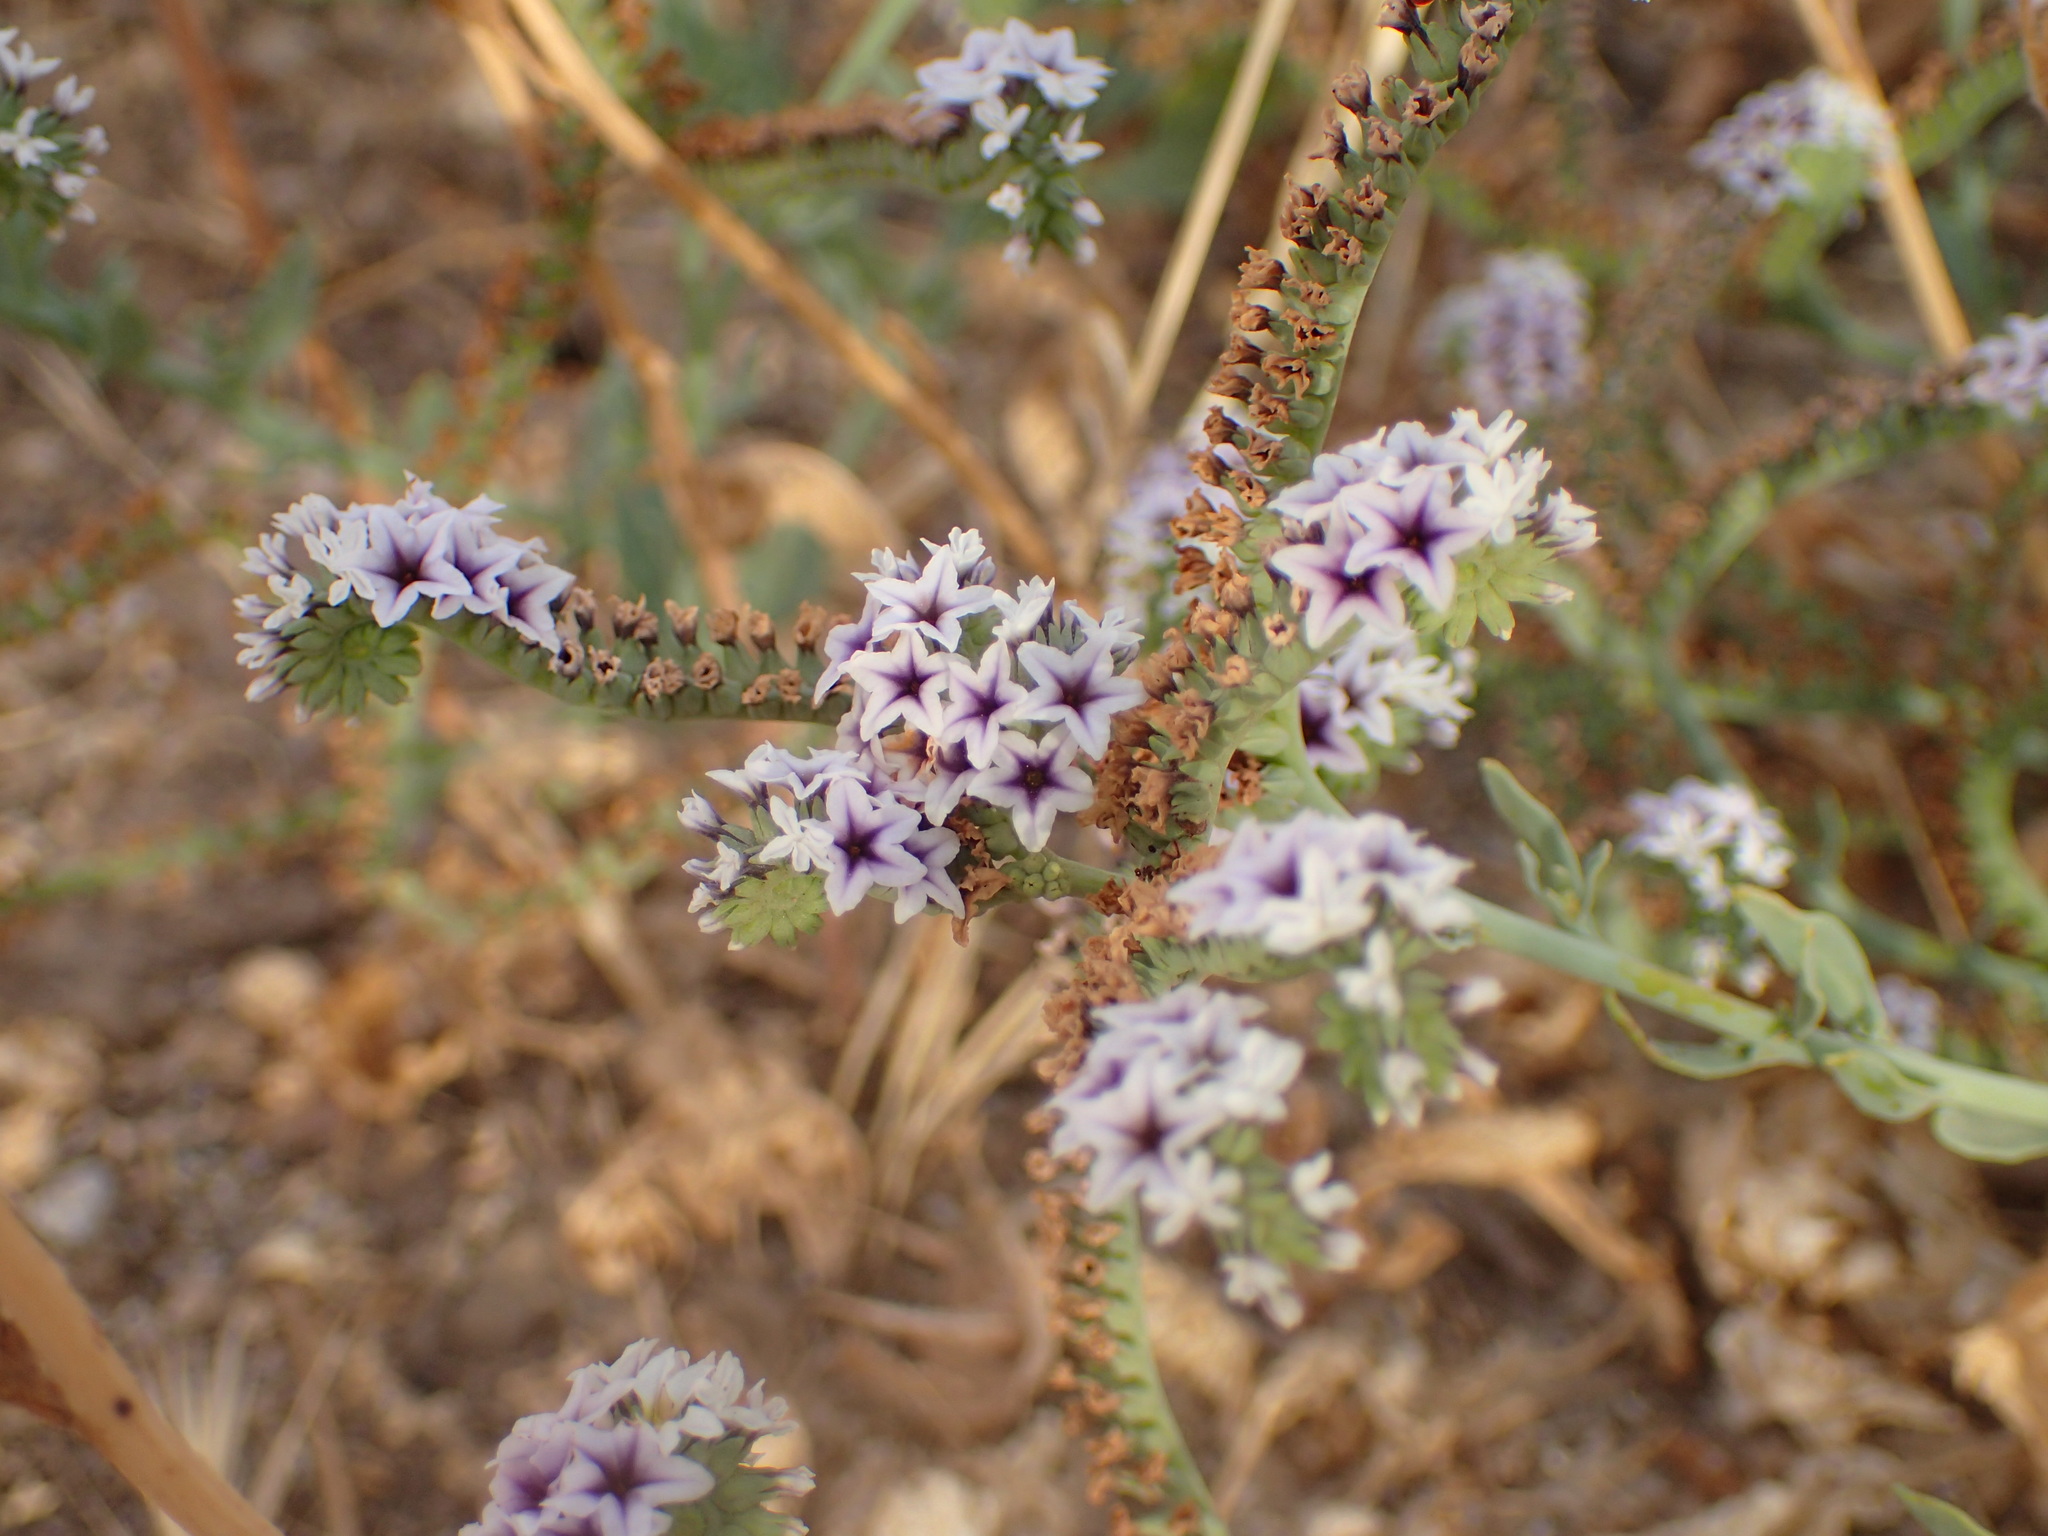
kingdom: Plantae
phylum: Tracheophyta
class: Magnoliopsida
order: Boraginales
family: Heliotropiaceae
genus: Heliotropium
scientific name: Heliotropium curassavicum
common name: Seaside heliotrope
